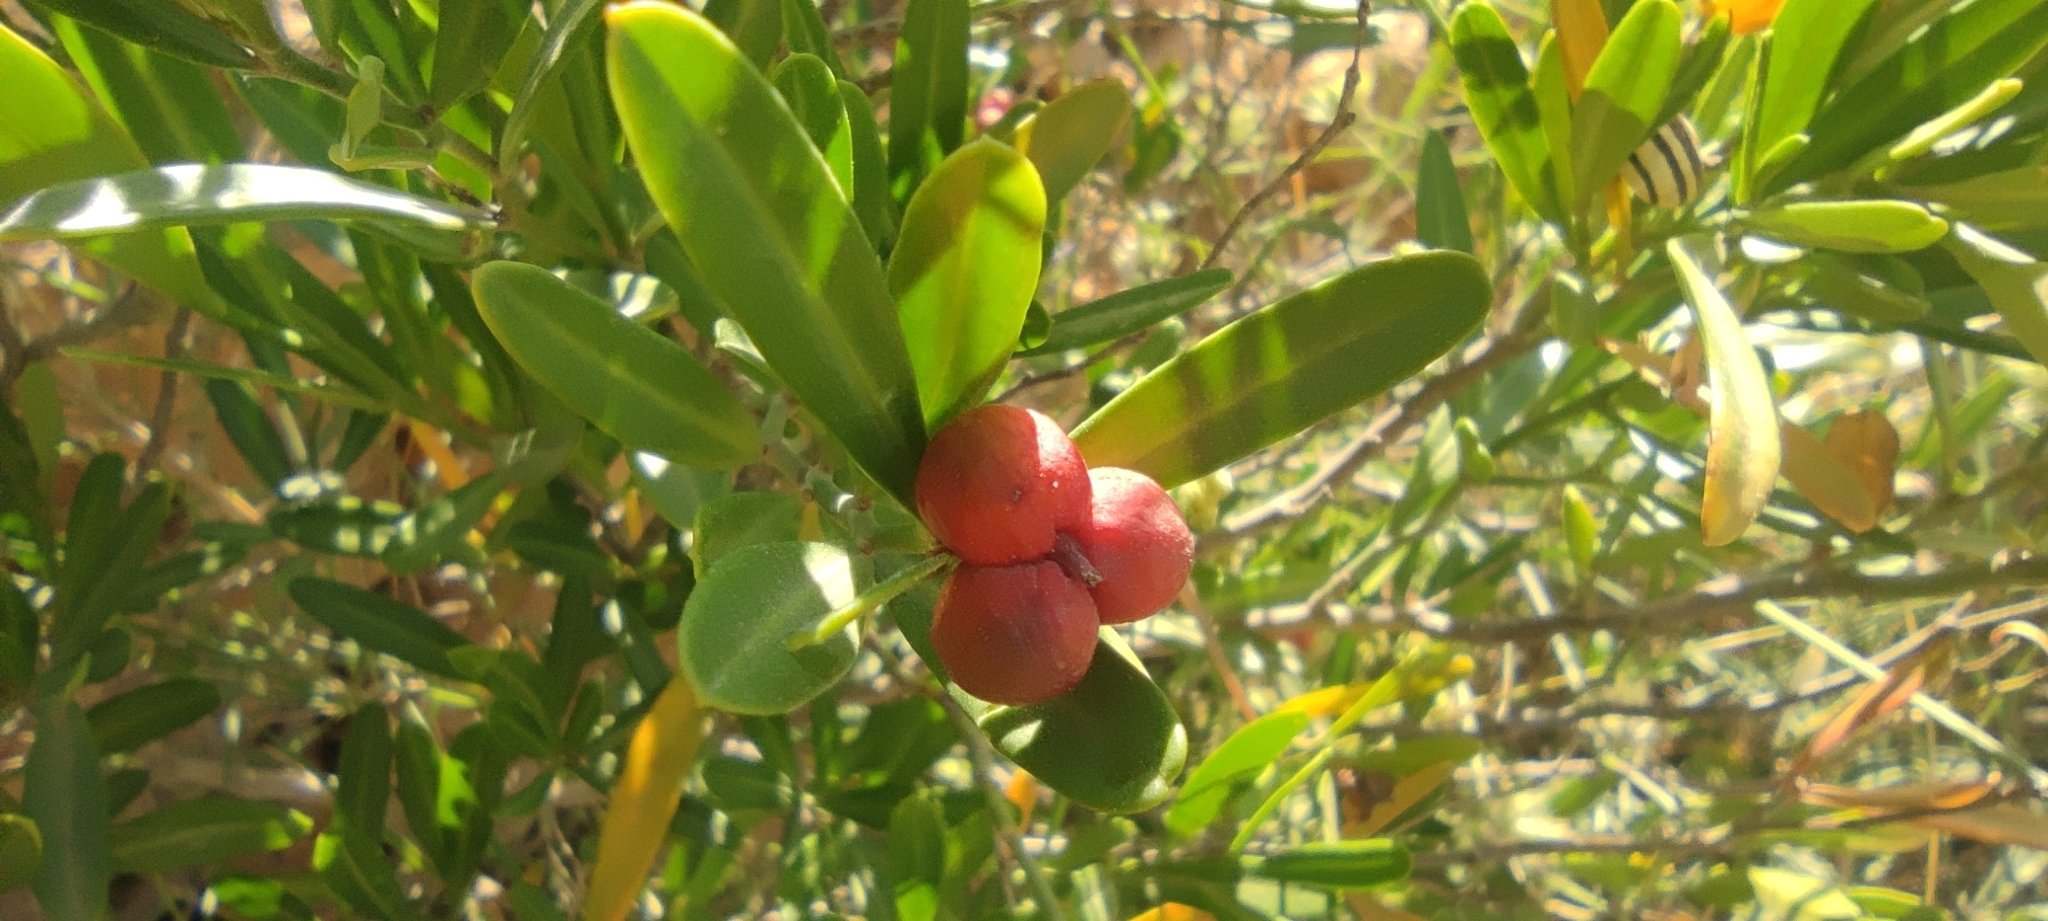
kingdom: Plantae
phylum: Tracheophyta
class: Magnoliopsida
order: Sapindales
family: Rutaceae
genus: Cneorum
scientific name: Cneorum tricoccon
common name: Spurge olive
